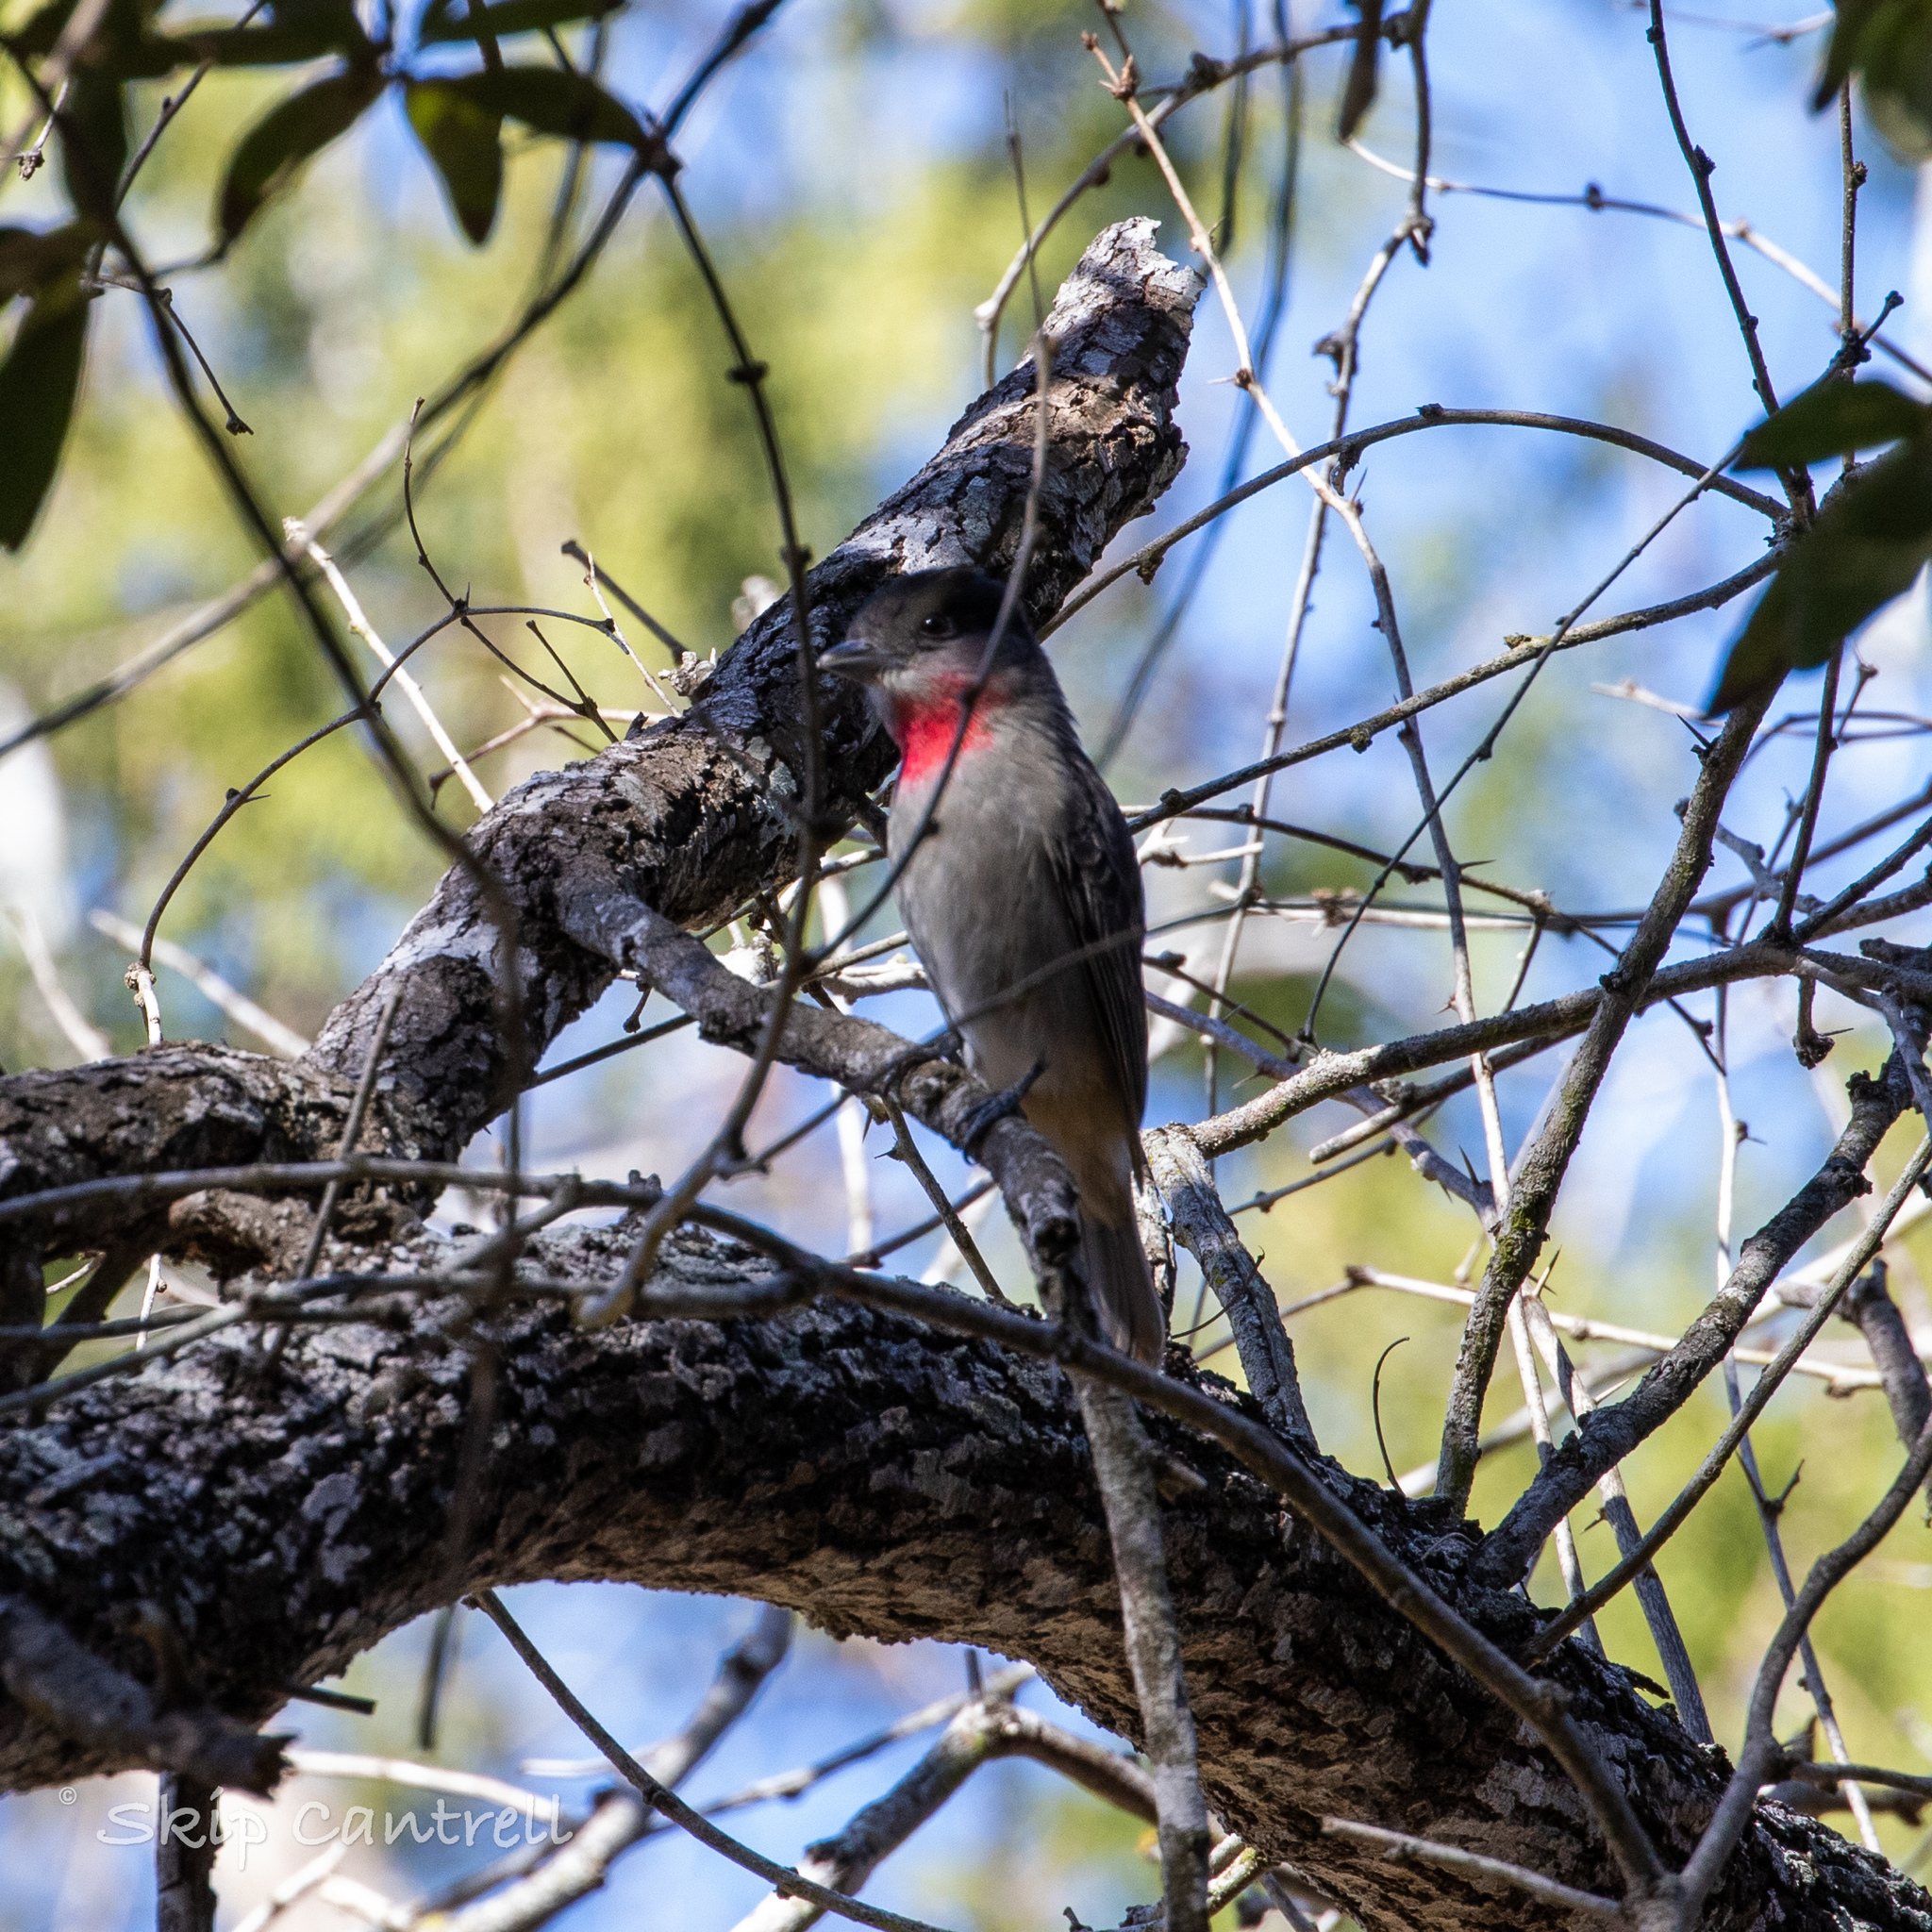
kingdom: Animalia
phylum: Chordata
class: Aves
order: Passeriformes
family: Cotingidae
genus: Pachyramphus
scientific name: Pachyramphus aglaiae
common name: Rose-throated becard
